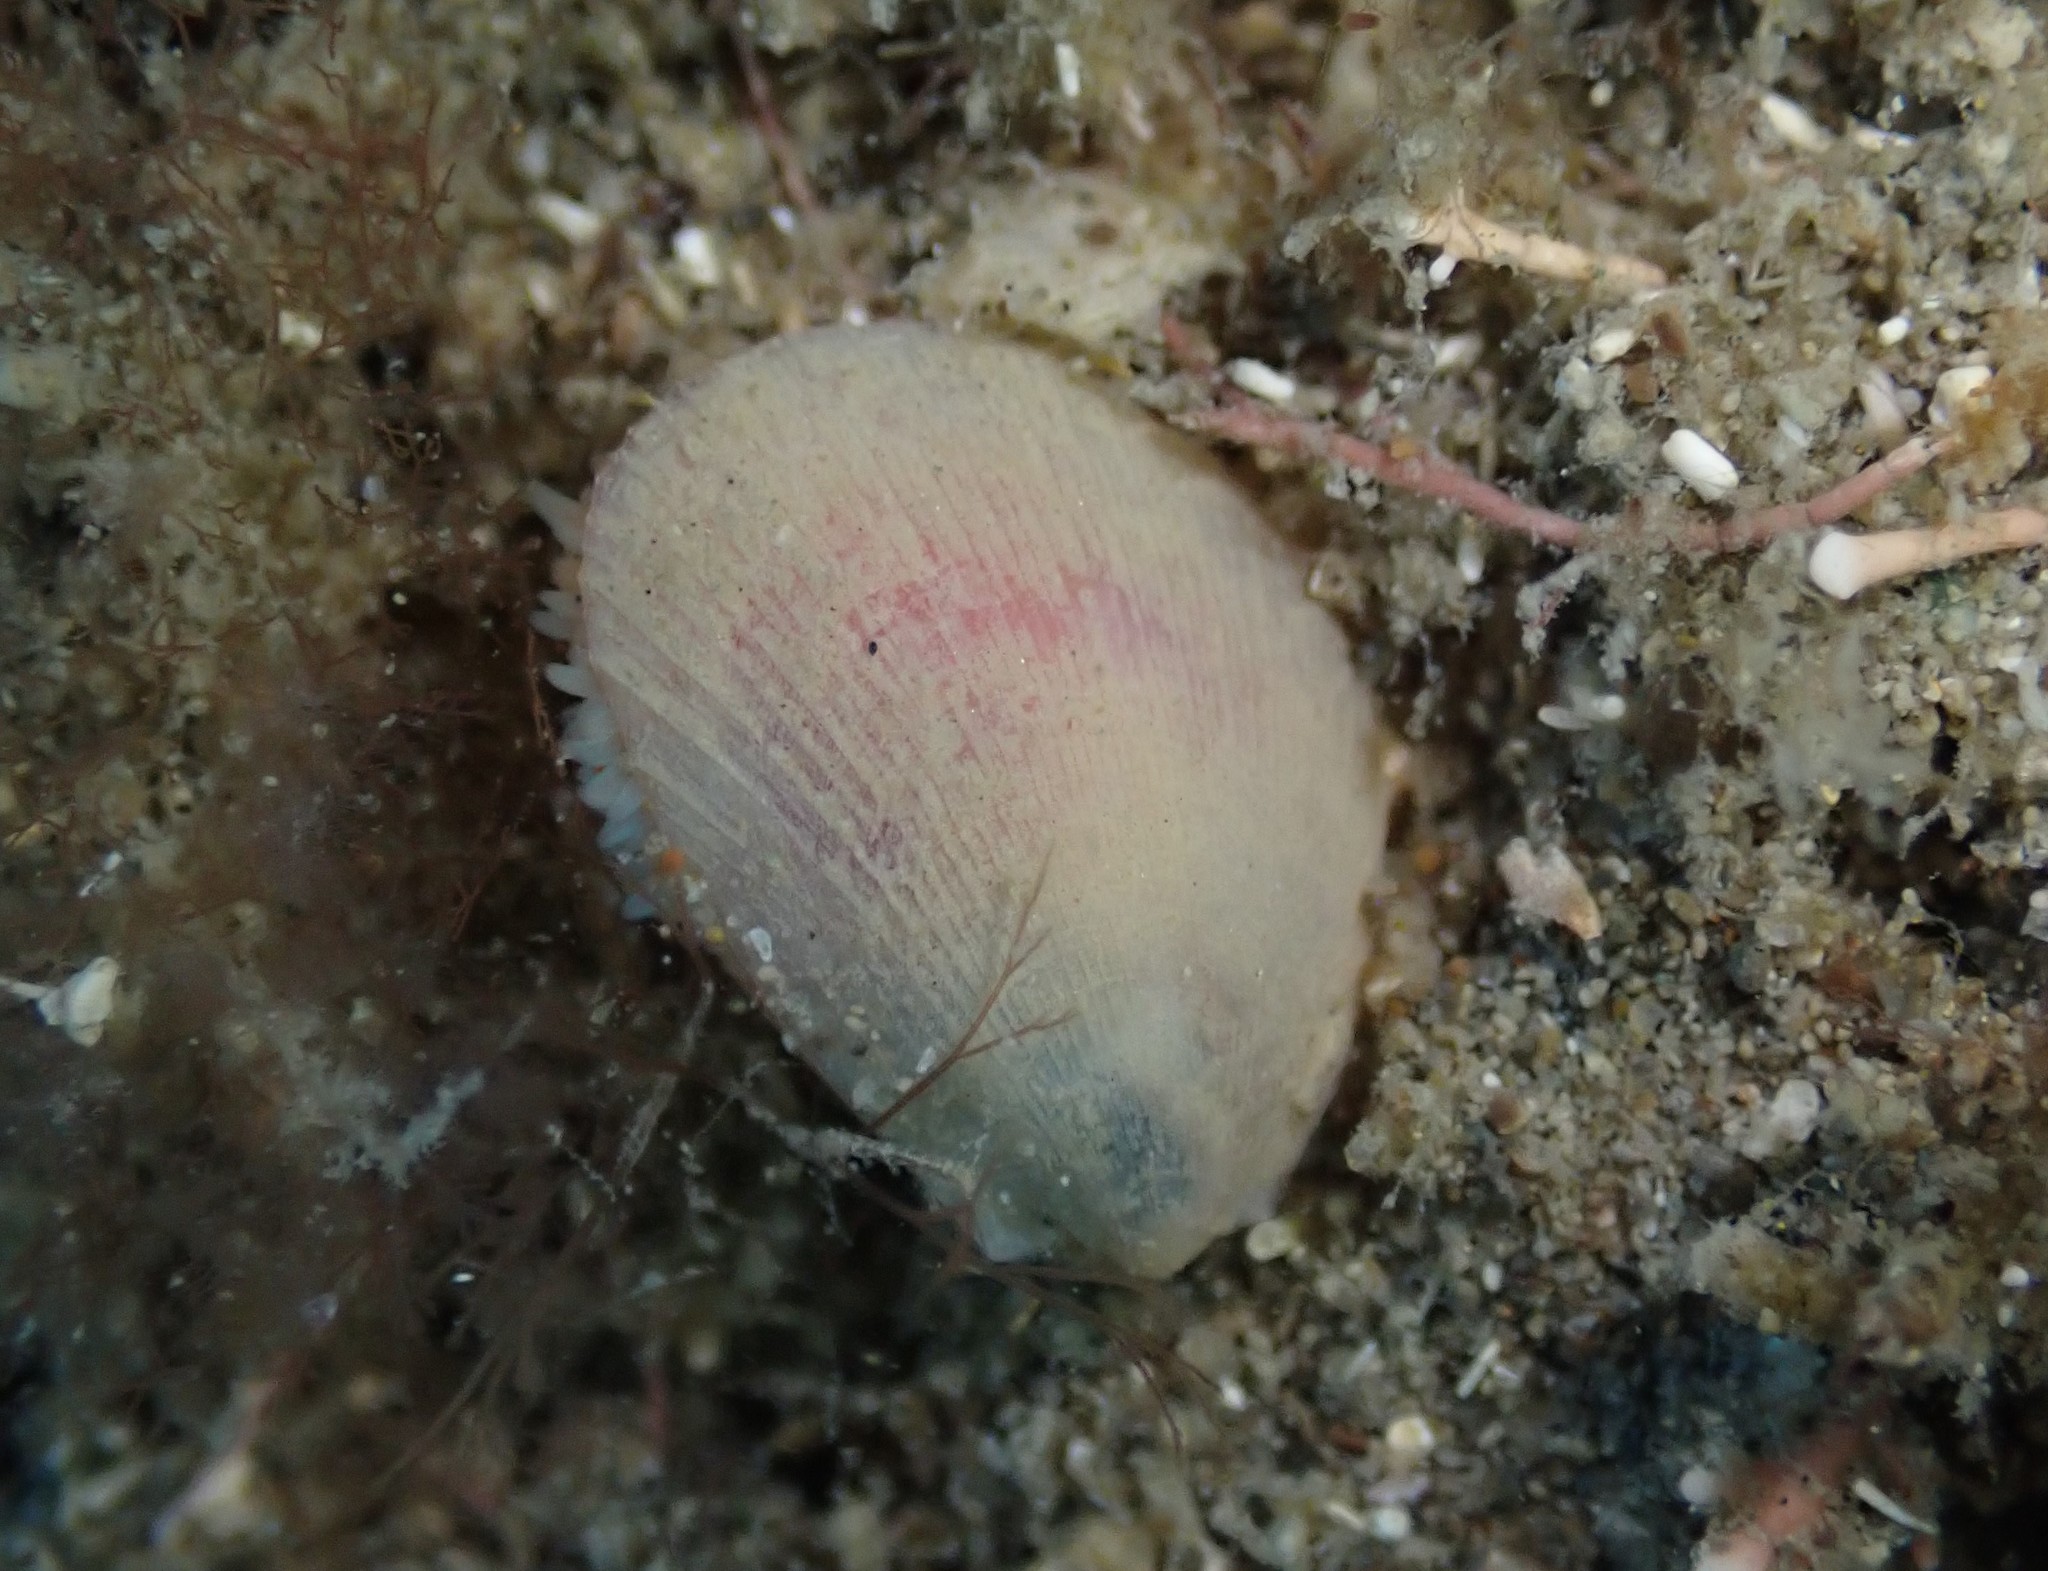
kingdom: Animalia
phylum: Mollusca
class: Bivalvia
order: Limida
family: Limidae
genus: Limaria
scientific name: Limaria orientalis
